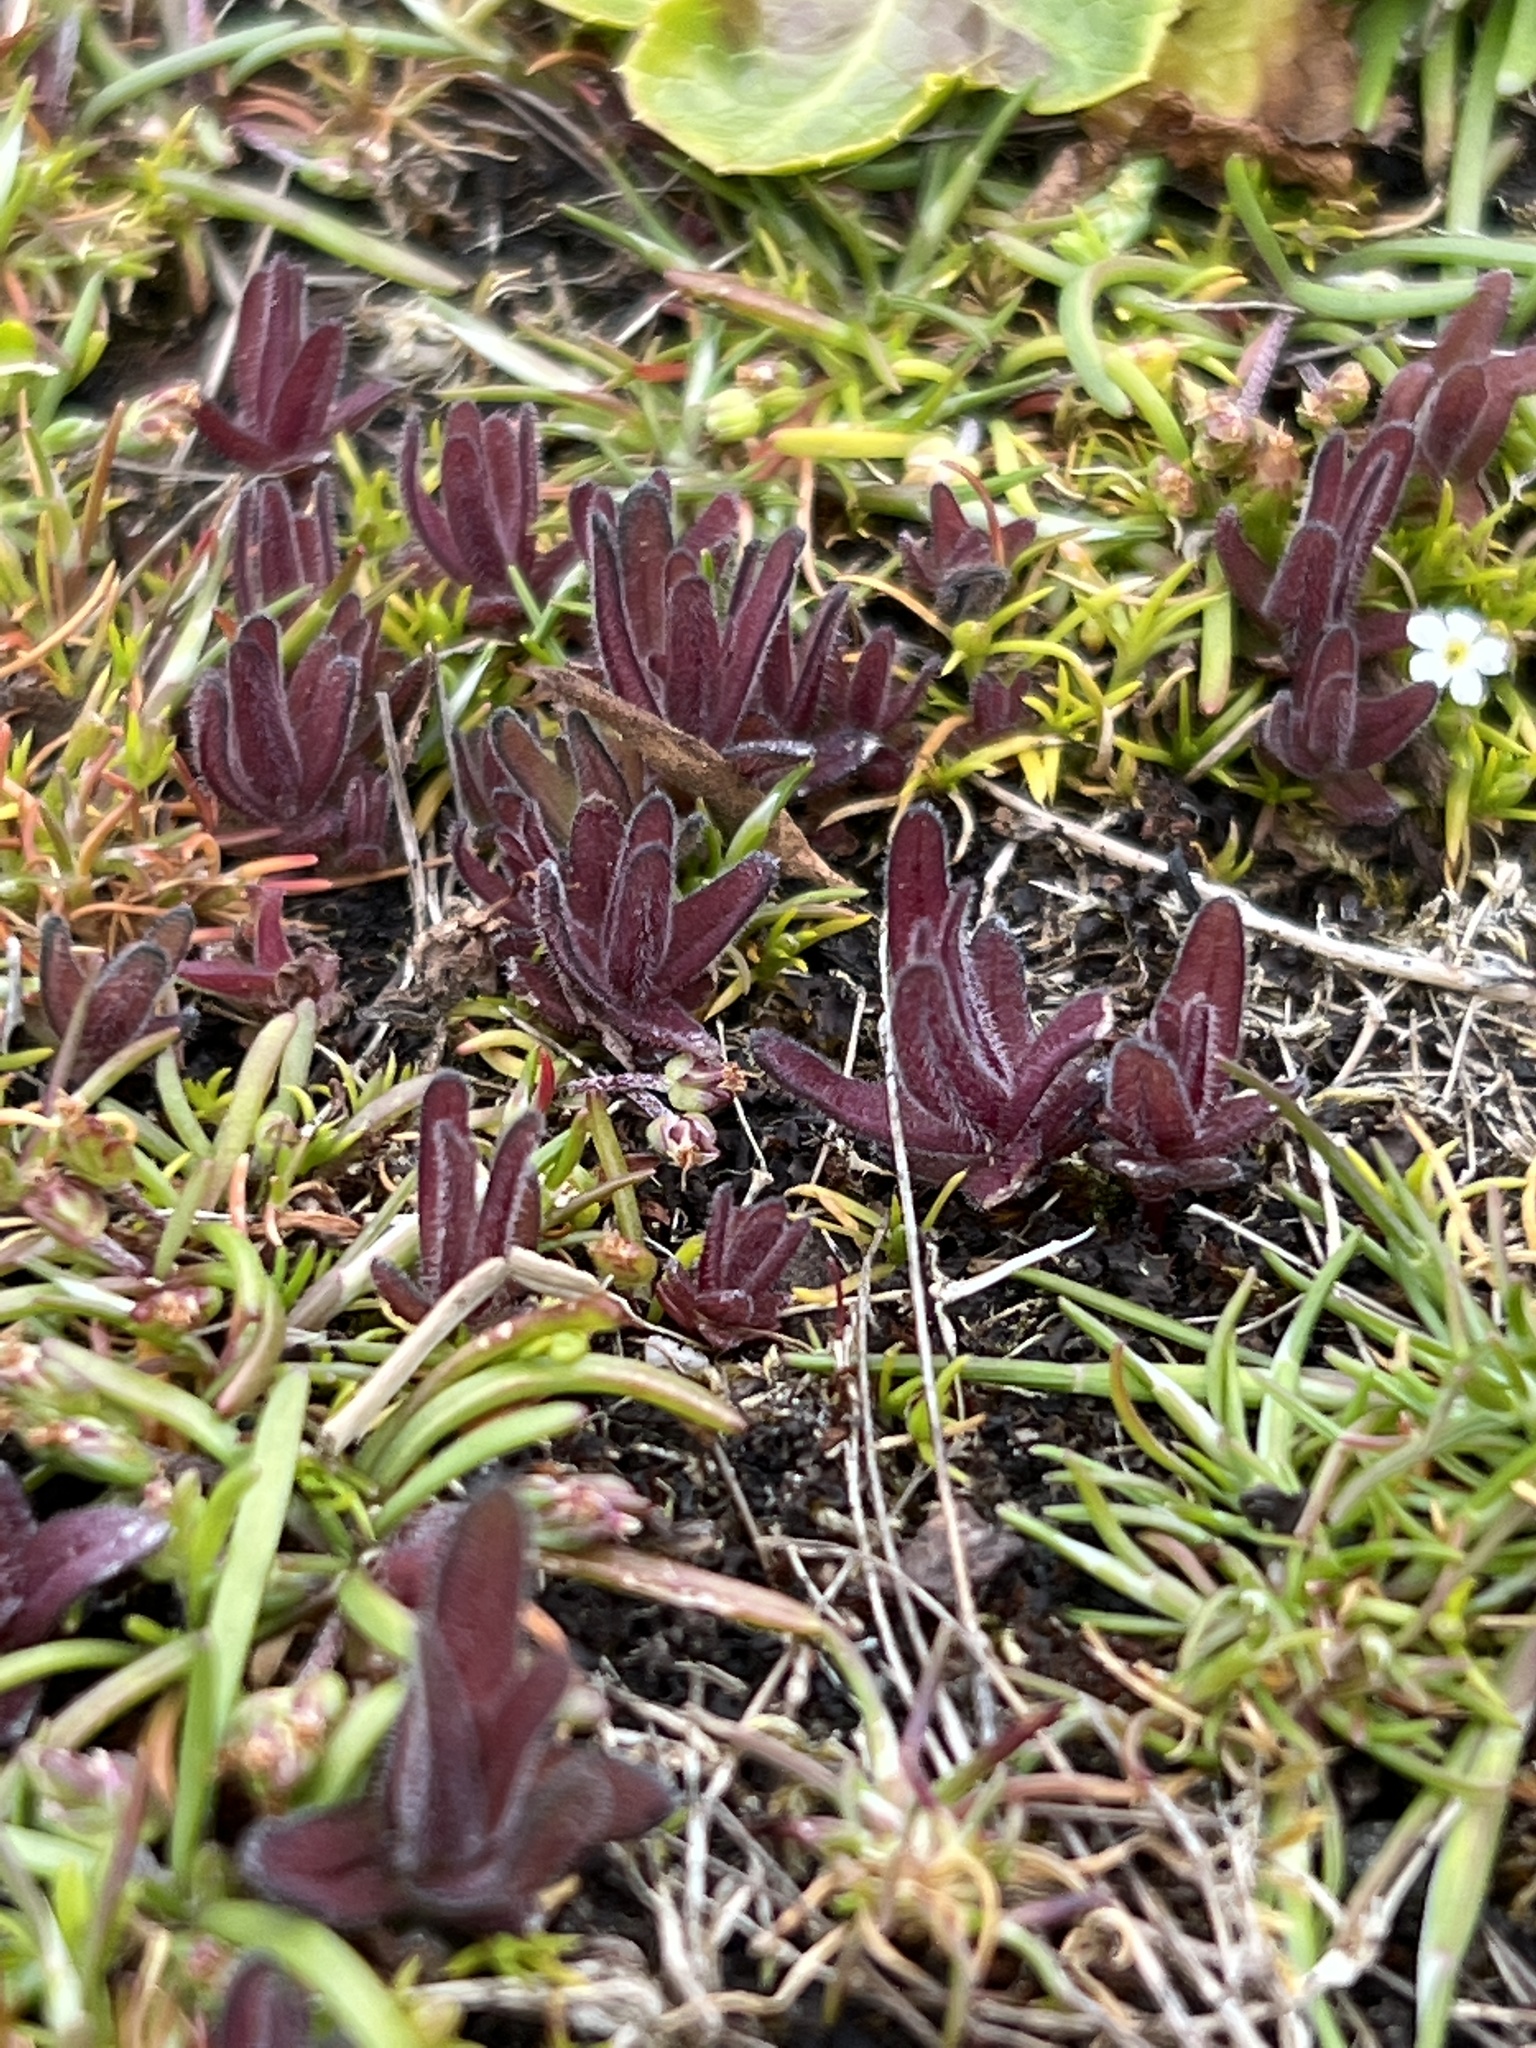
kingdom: Plantae
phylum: Tracheophyta
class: Magnoliopsida
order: Lamiales
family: Orobanchaceae
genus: Castilleja
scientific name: Castilleja victoriae
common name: Victoria paintbrush
